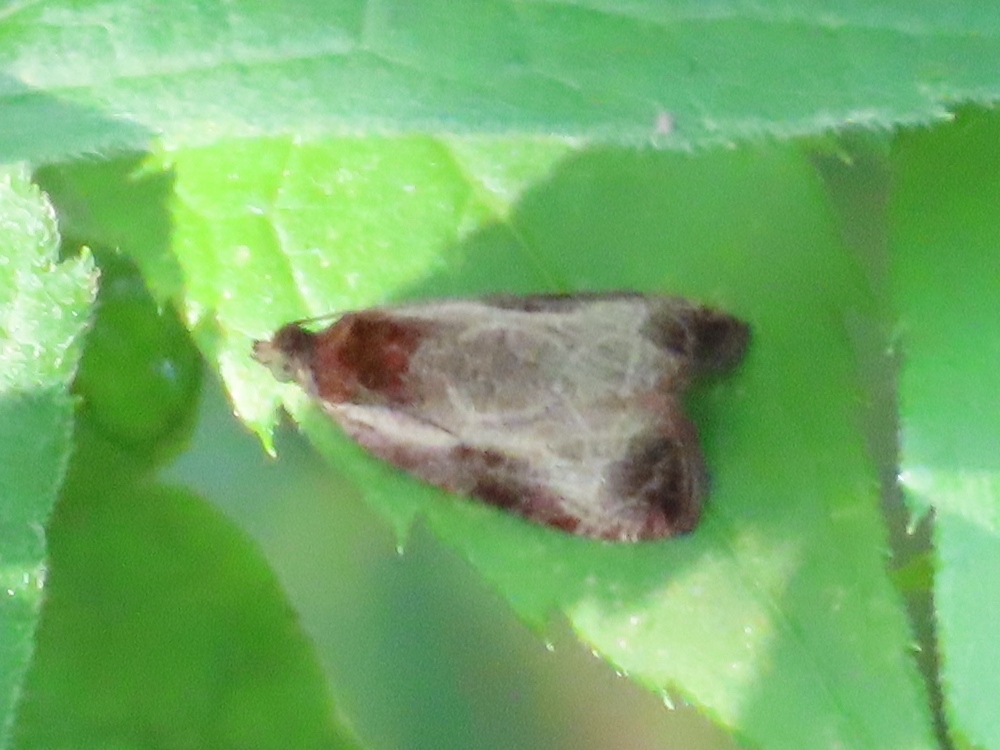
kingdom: Animalia
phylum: Arthropoda
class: Insecta
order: Lepidoptera
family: Tortricidae
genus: Olethreutes
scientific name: Olethreutes inornatana
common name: Inornate olethreutes moth
